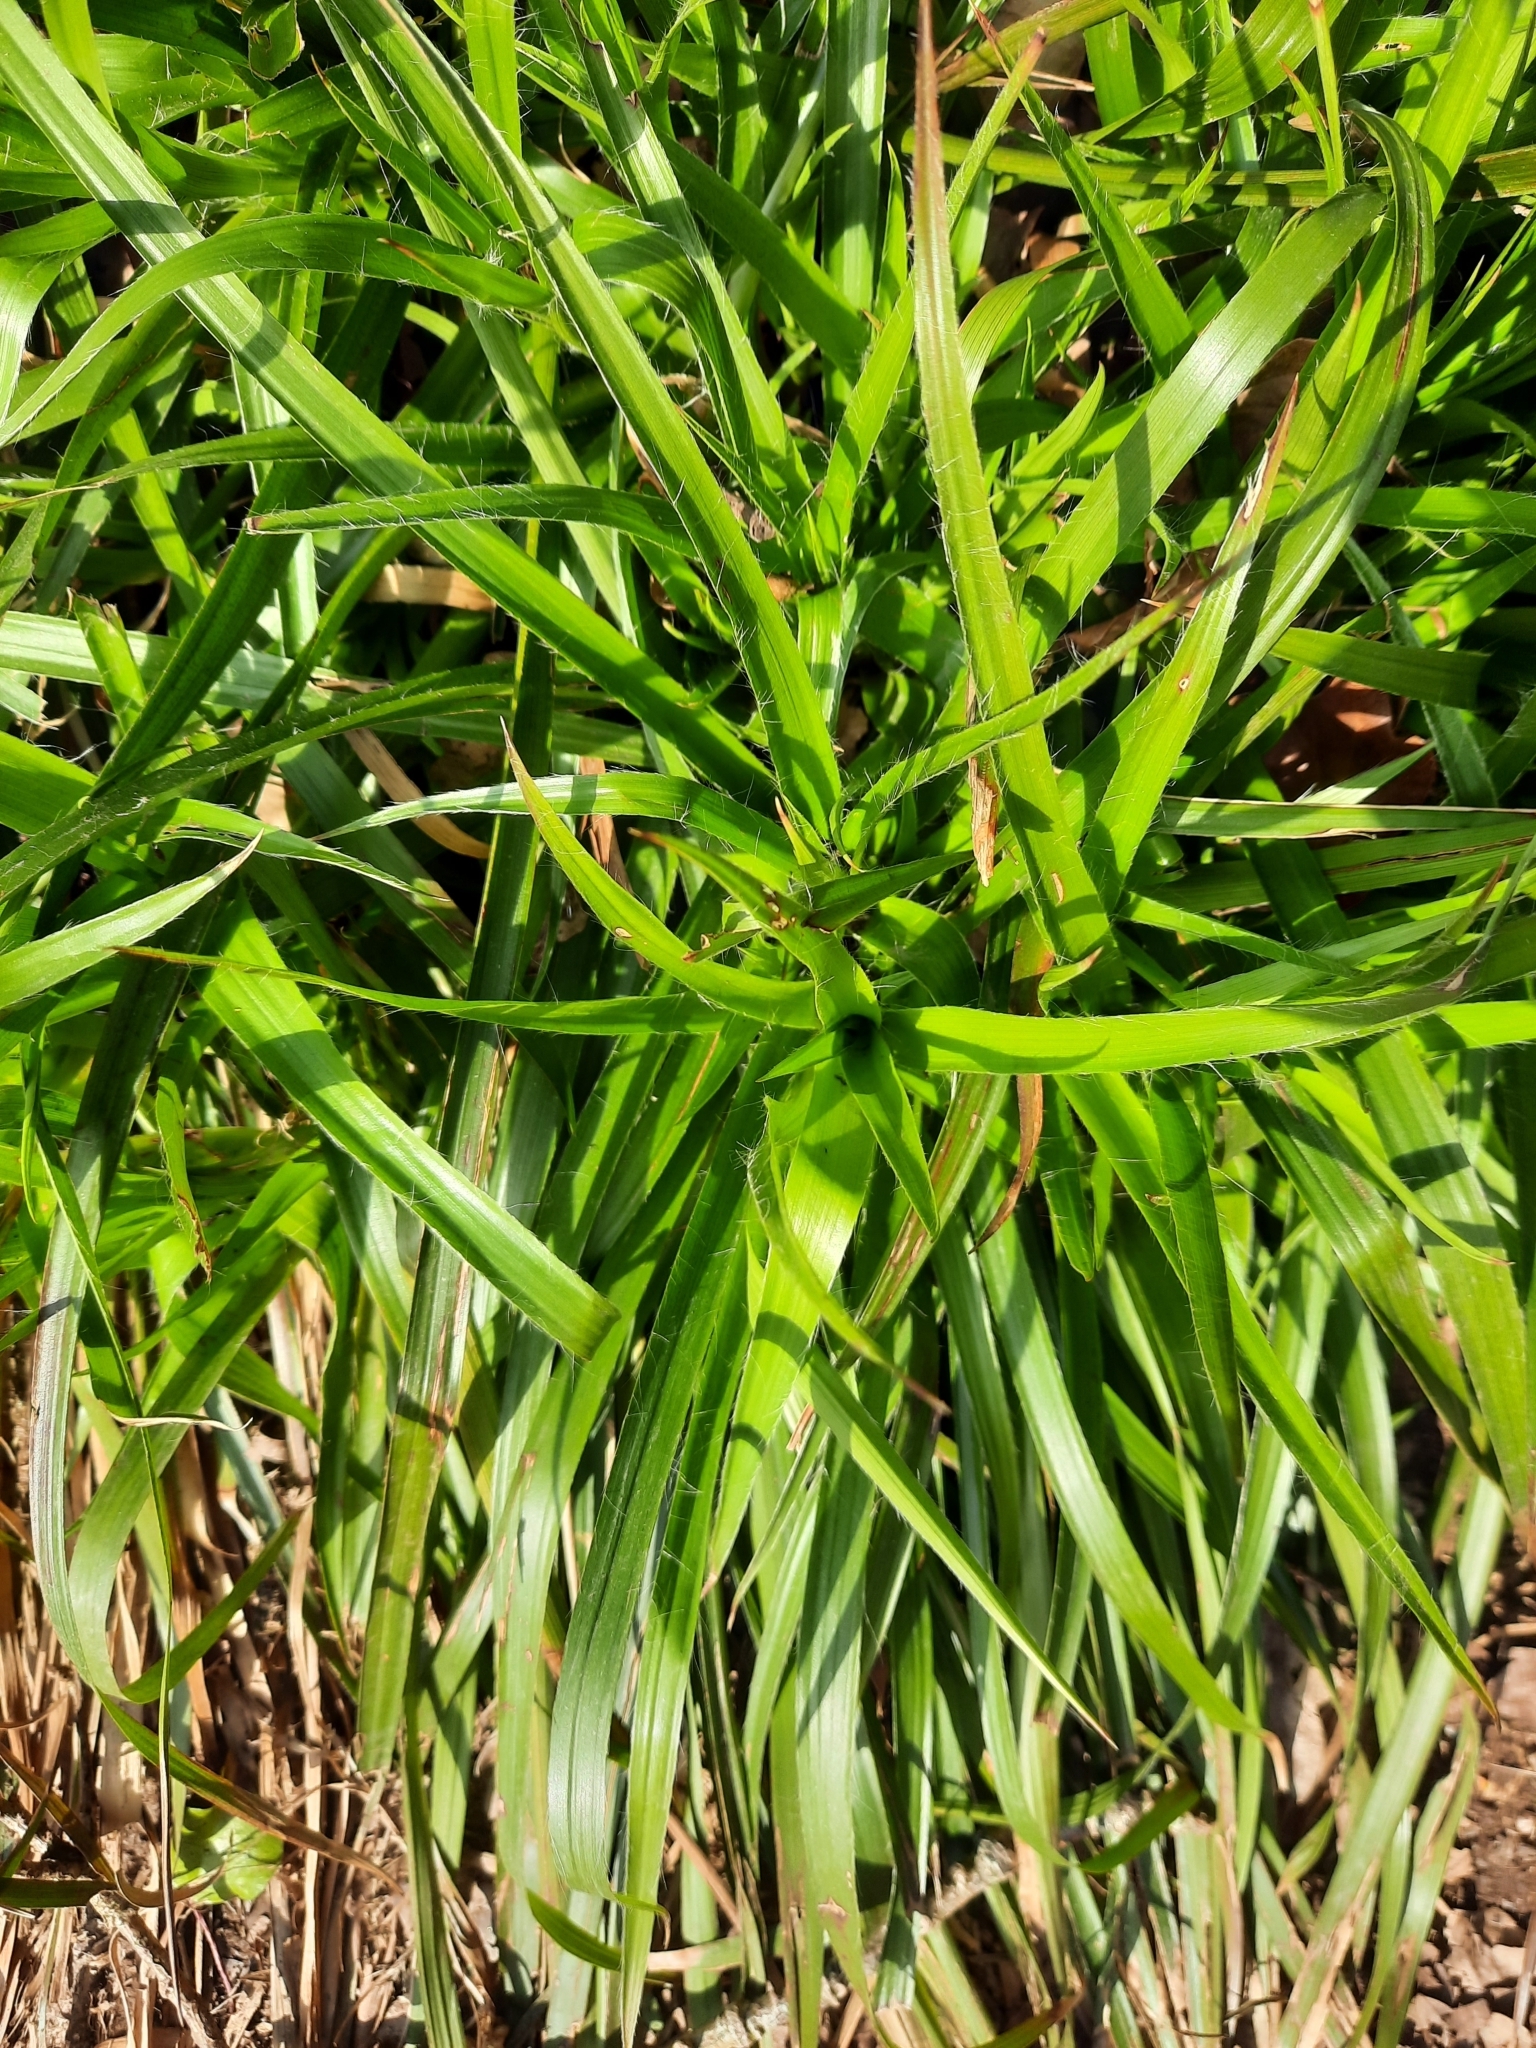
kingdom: Plantae
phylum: Tracheophyta
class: Liliopsida
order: Poales
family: Juncaceae
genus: Luzula
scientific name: Luzula sylvatica
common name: Great wood-rush
